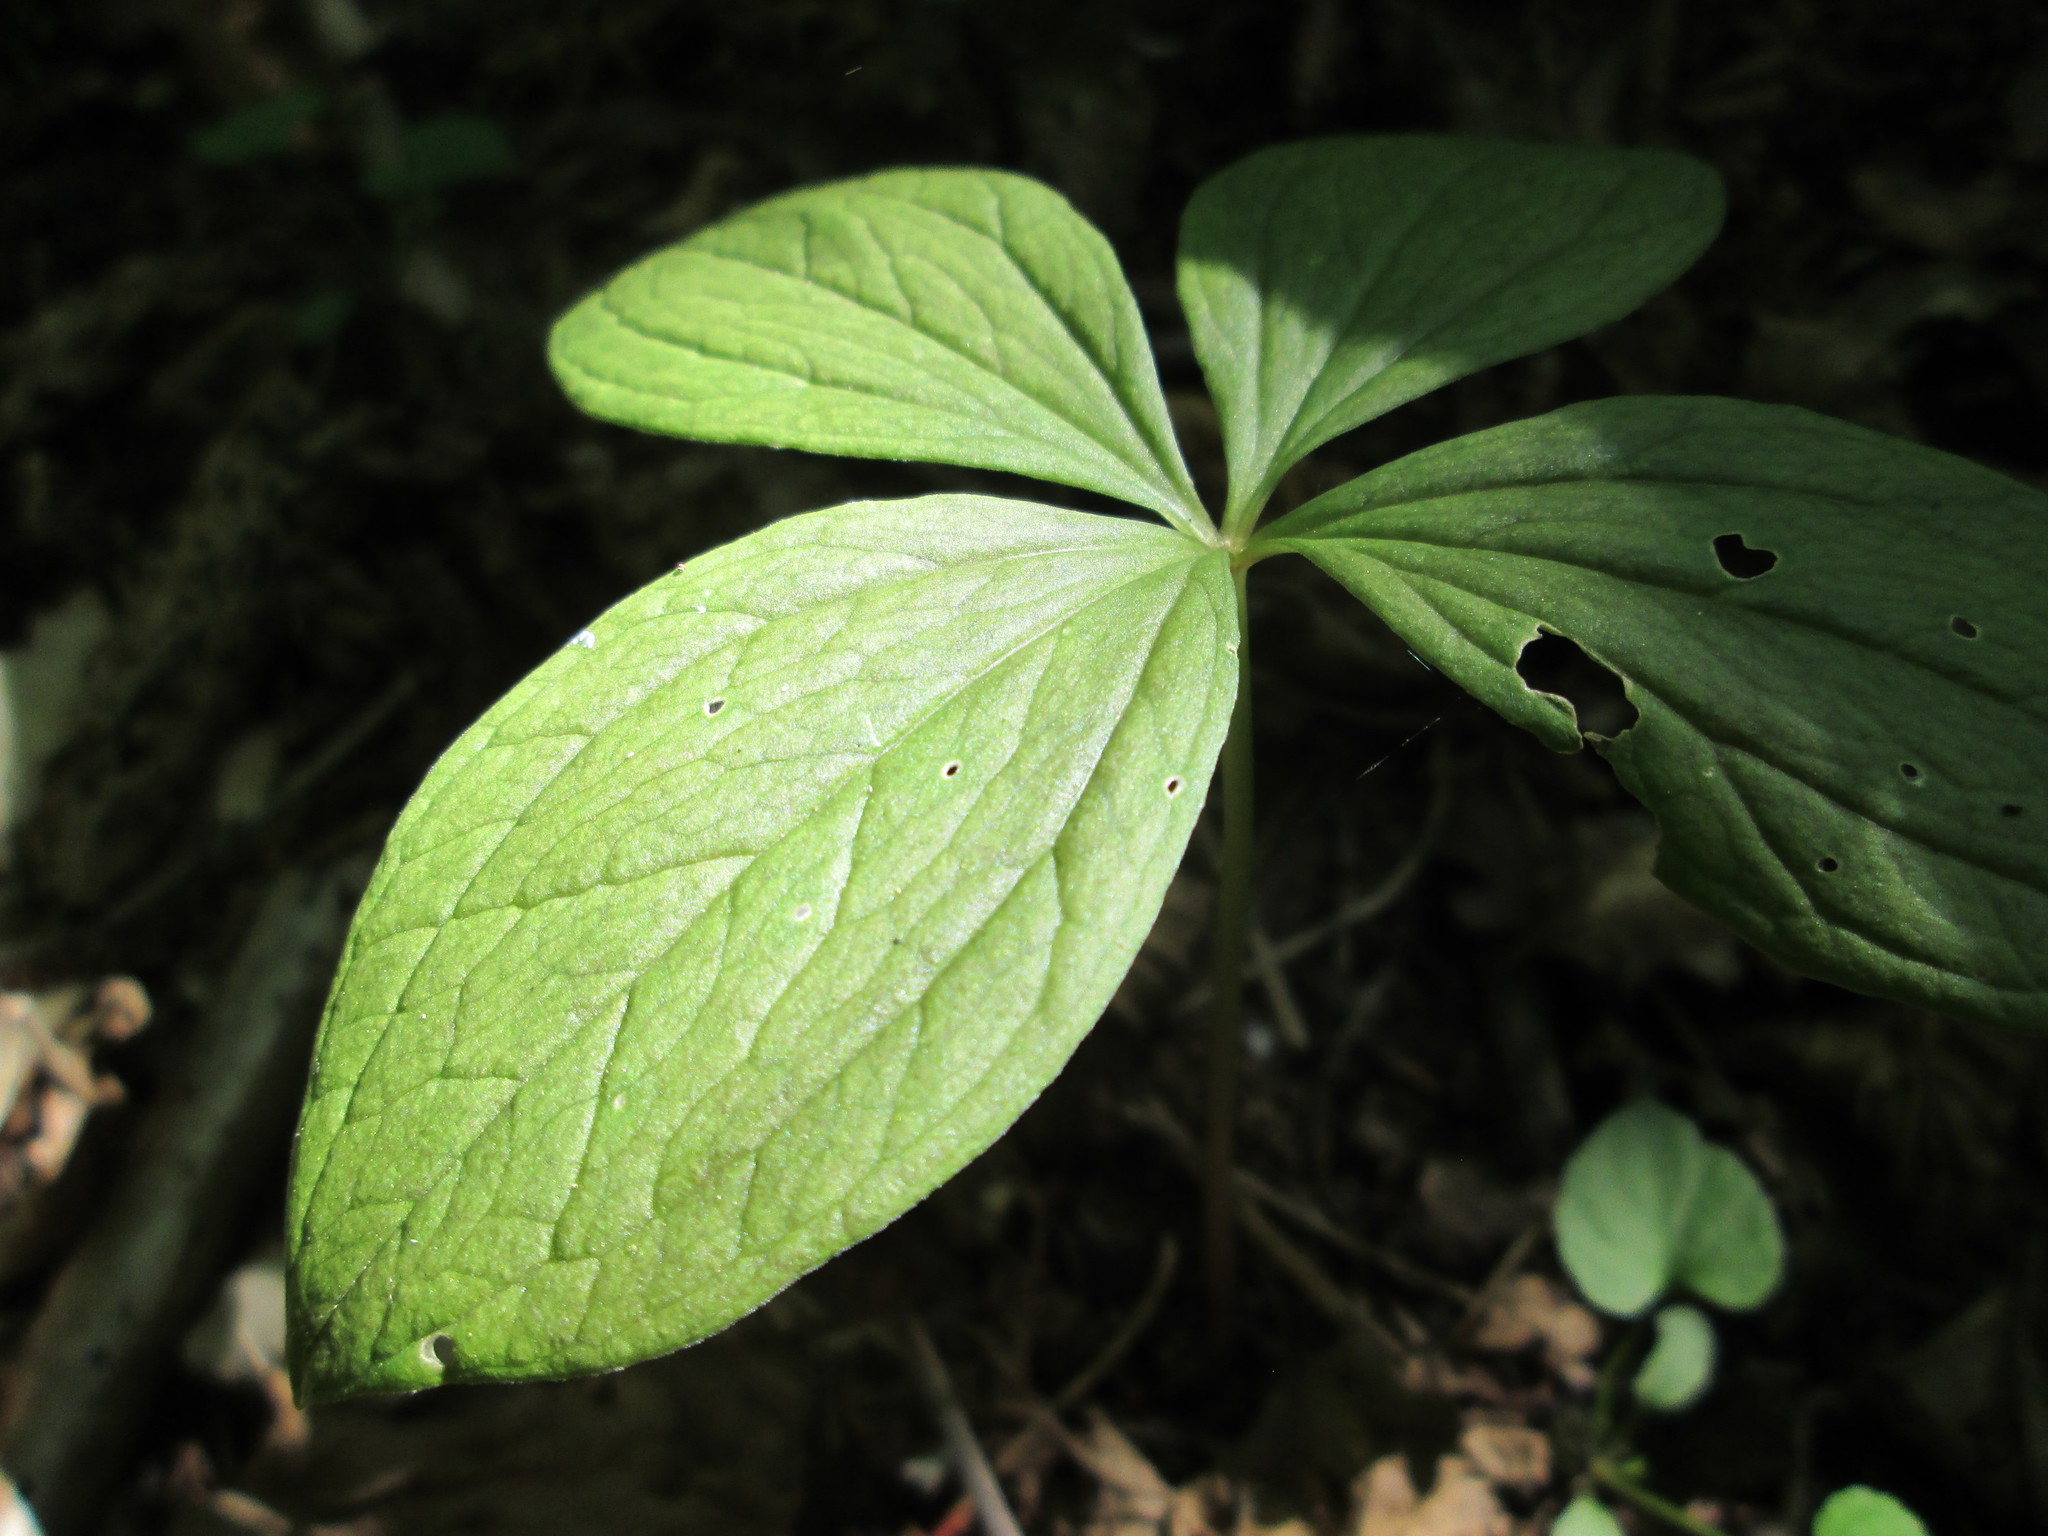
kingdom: Plantae
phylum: Tracheophyta
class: Liliopsida
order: Liliales
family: Melanthiaceae
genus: Paris
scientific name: Paris quadrifolia
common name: Herb-paris
